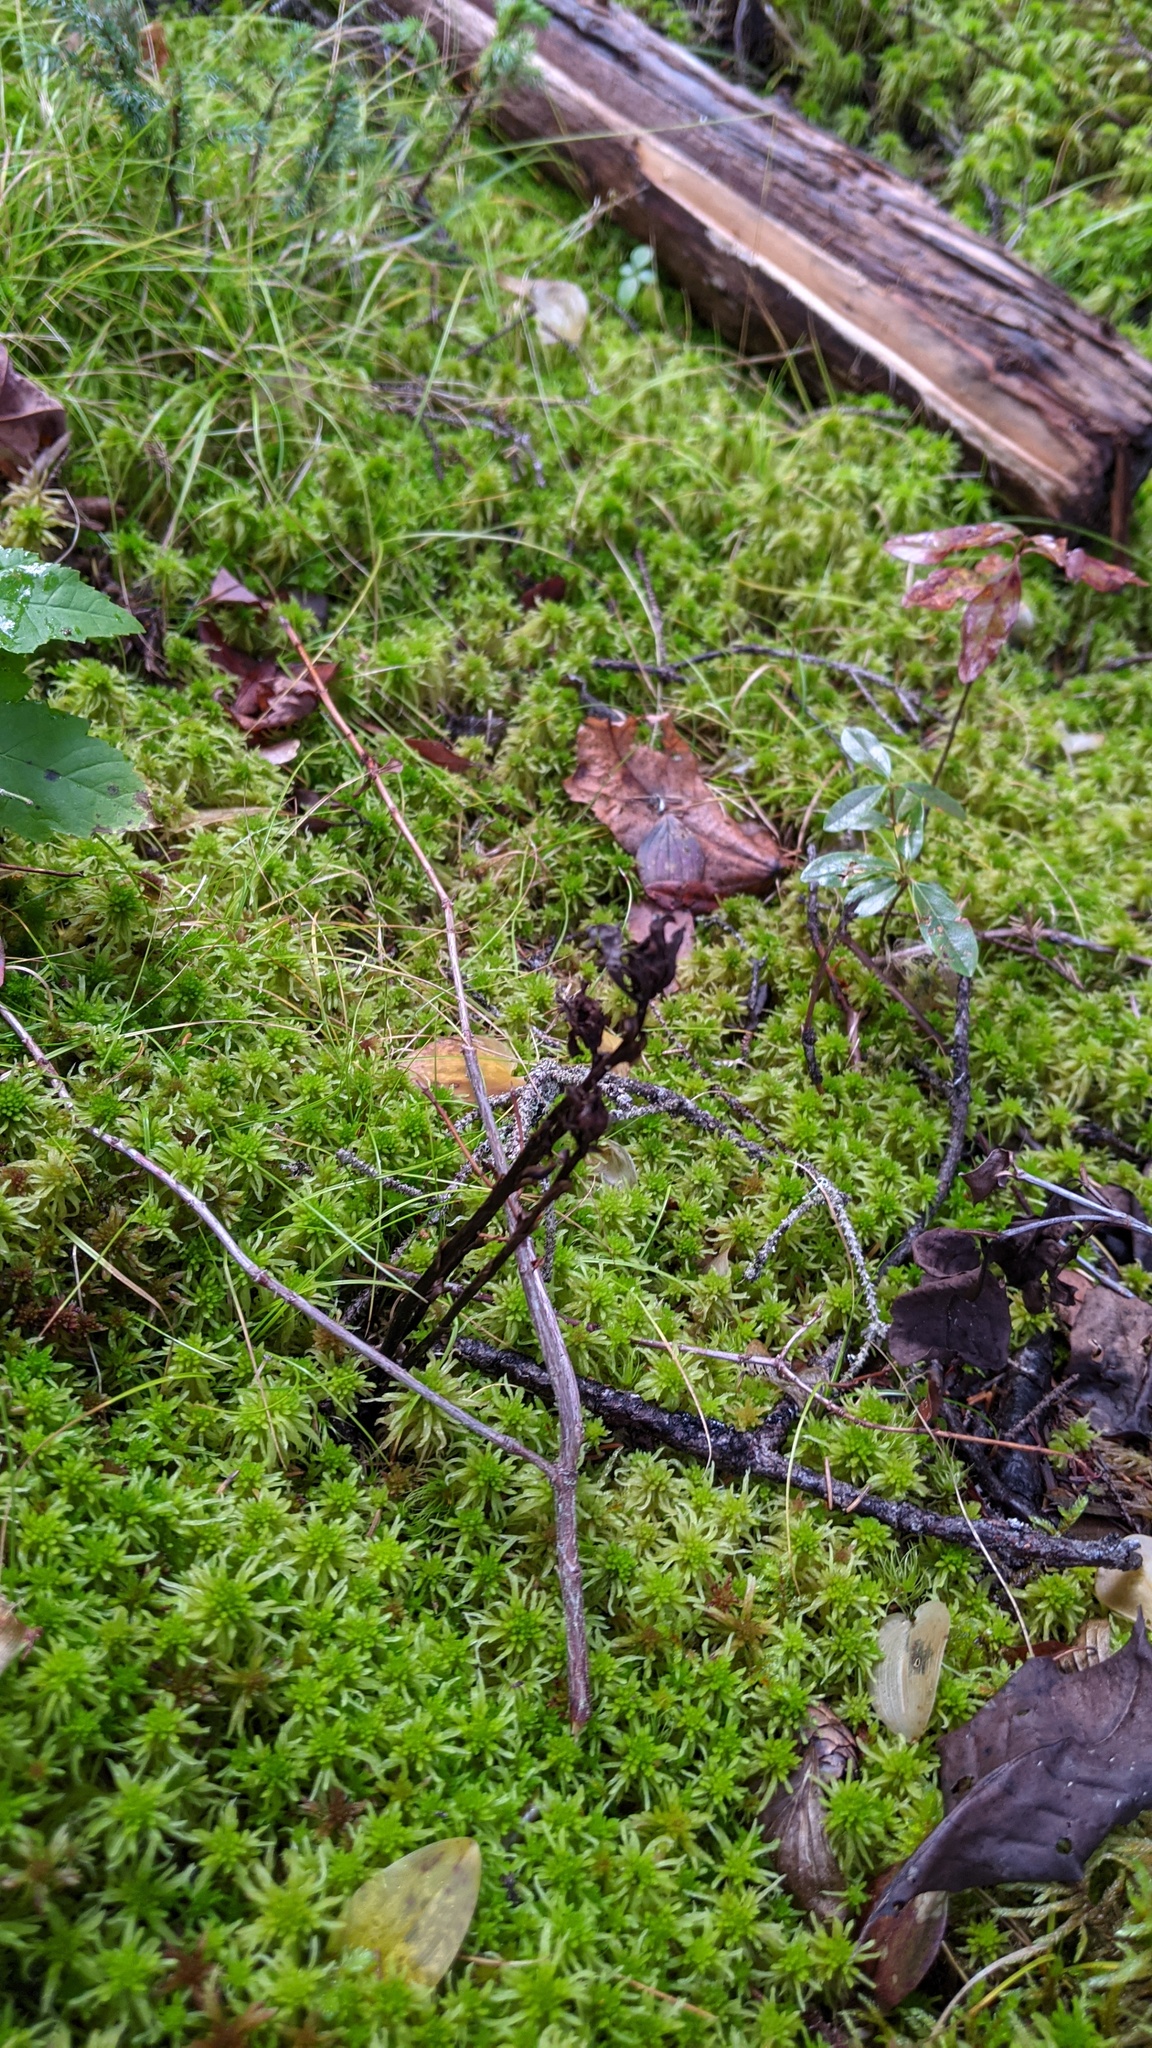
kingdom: Plantae
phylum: Tracheophyta
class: Magnoliopsida
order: Ericales
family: Ericaceae
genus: Monotropa
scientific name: Monotropa uniflora
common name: Convulsion root
